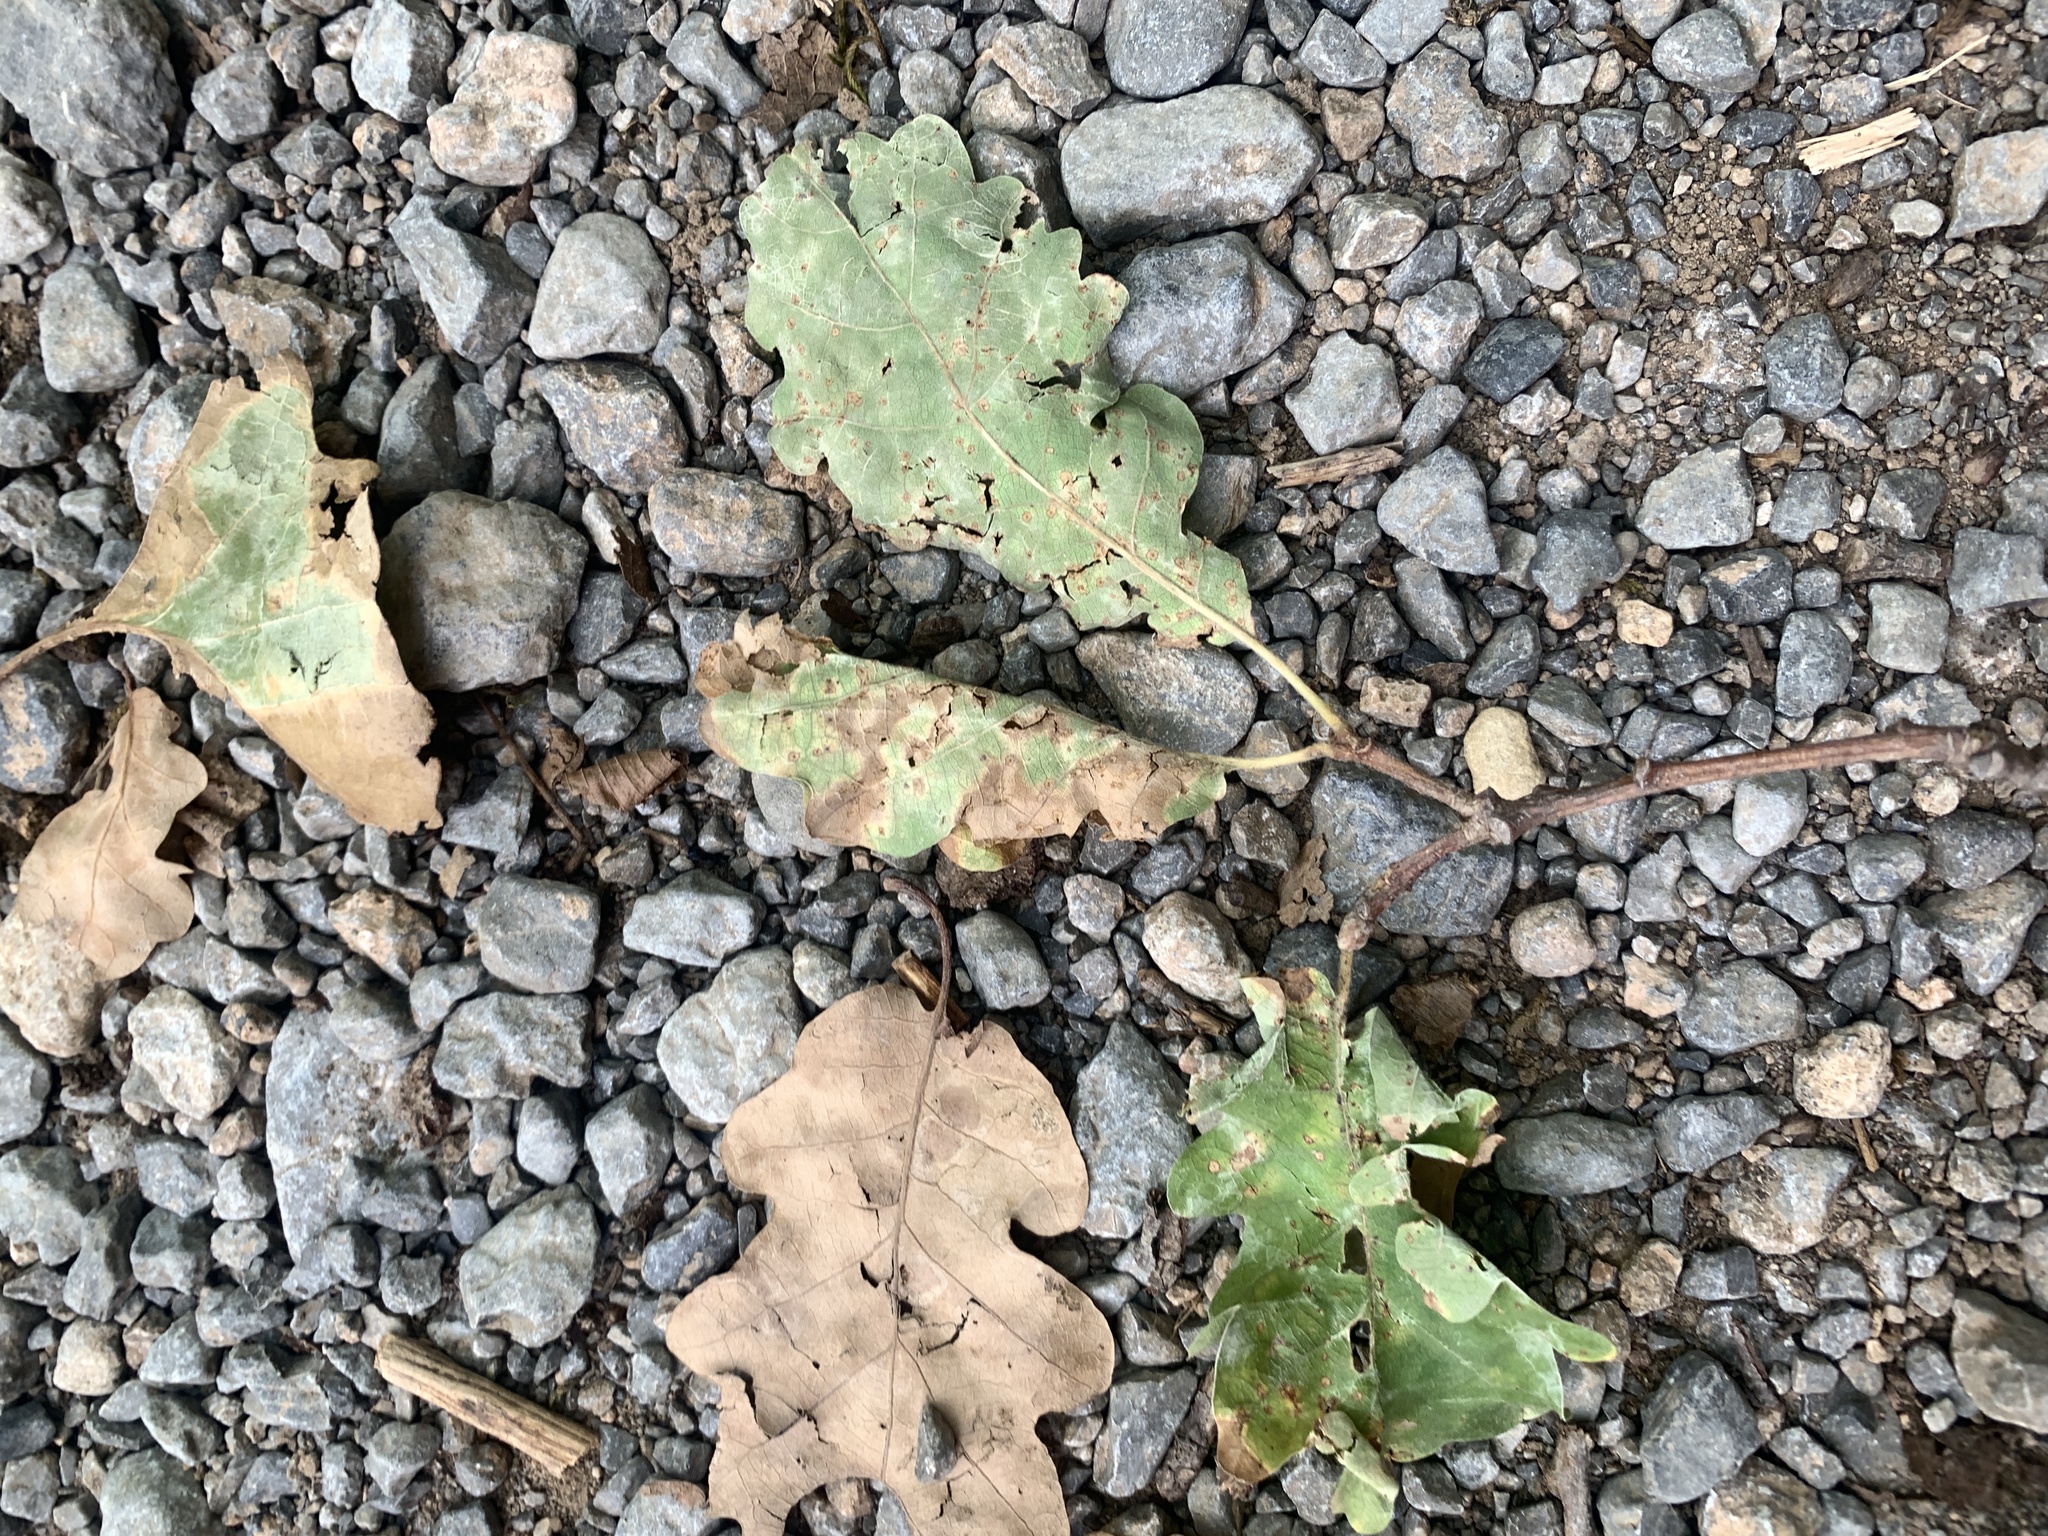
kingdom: Plantae
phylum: Tracheophyta
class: Magnoliopsida
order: Fagales
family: Fagaceae
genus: Quercus
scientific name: Quercus pubescens
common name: Downy oak
